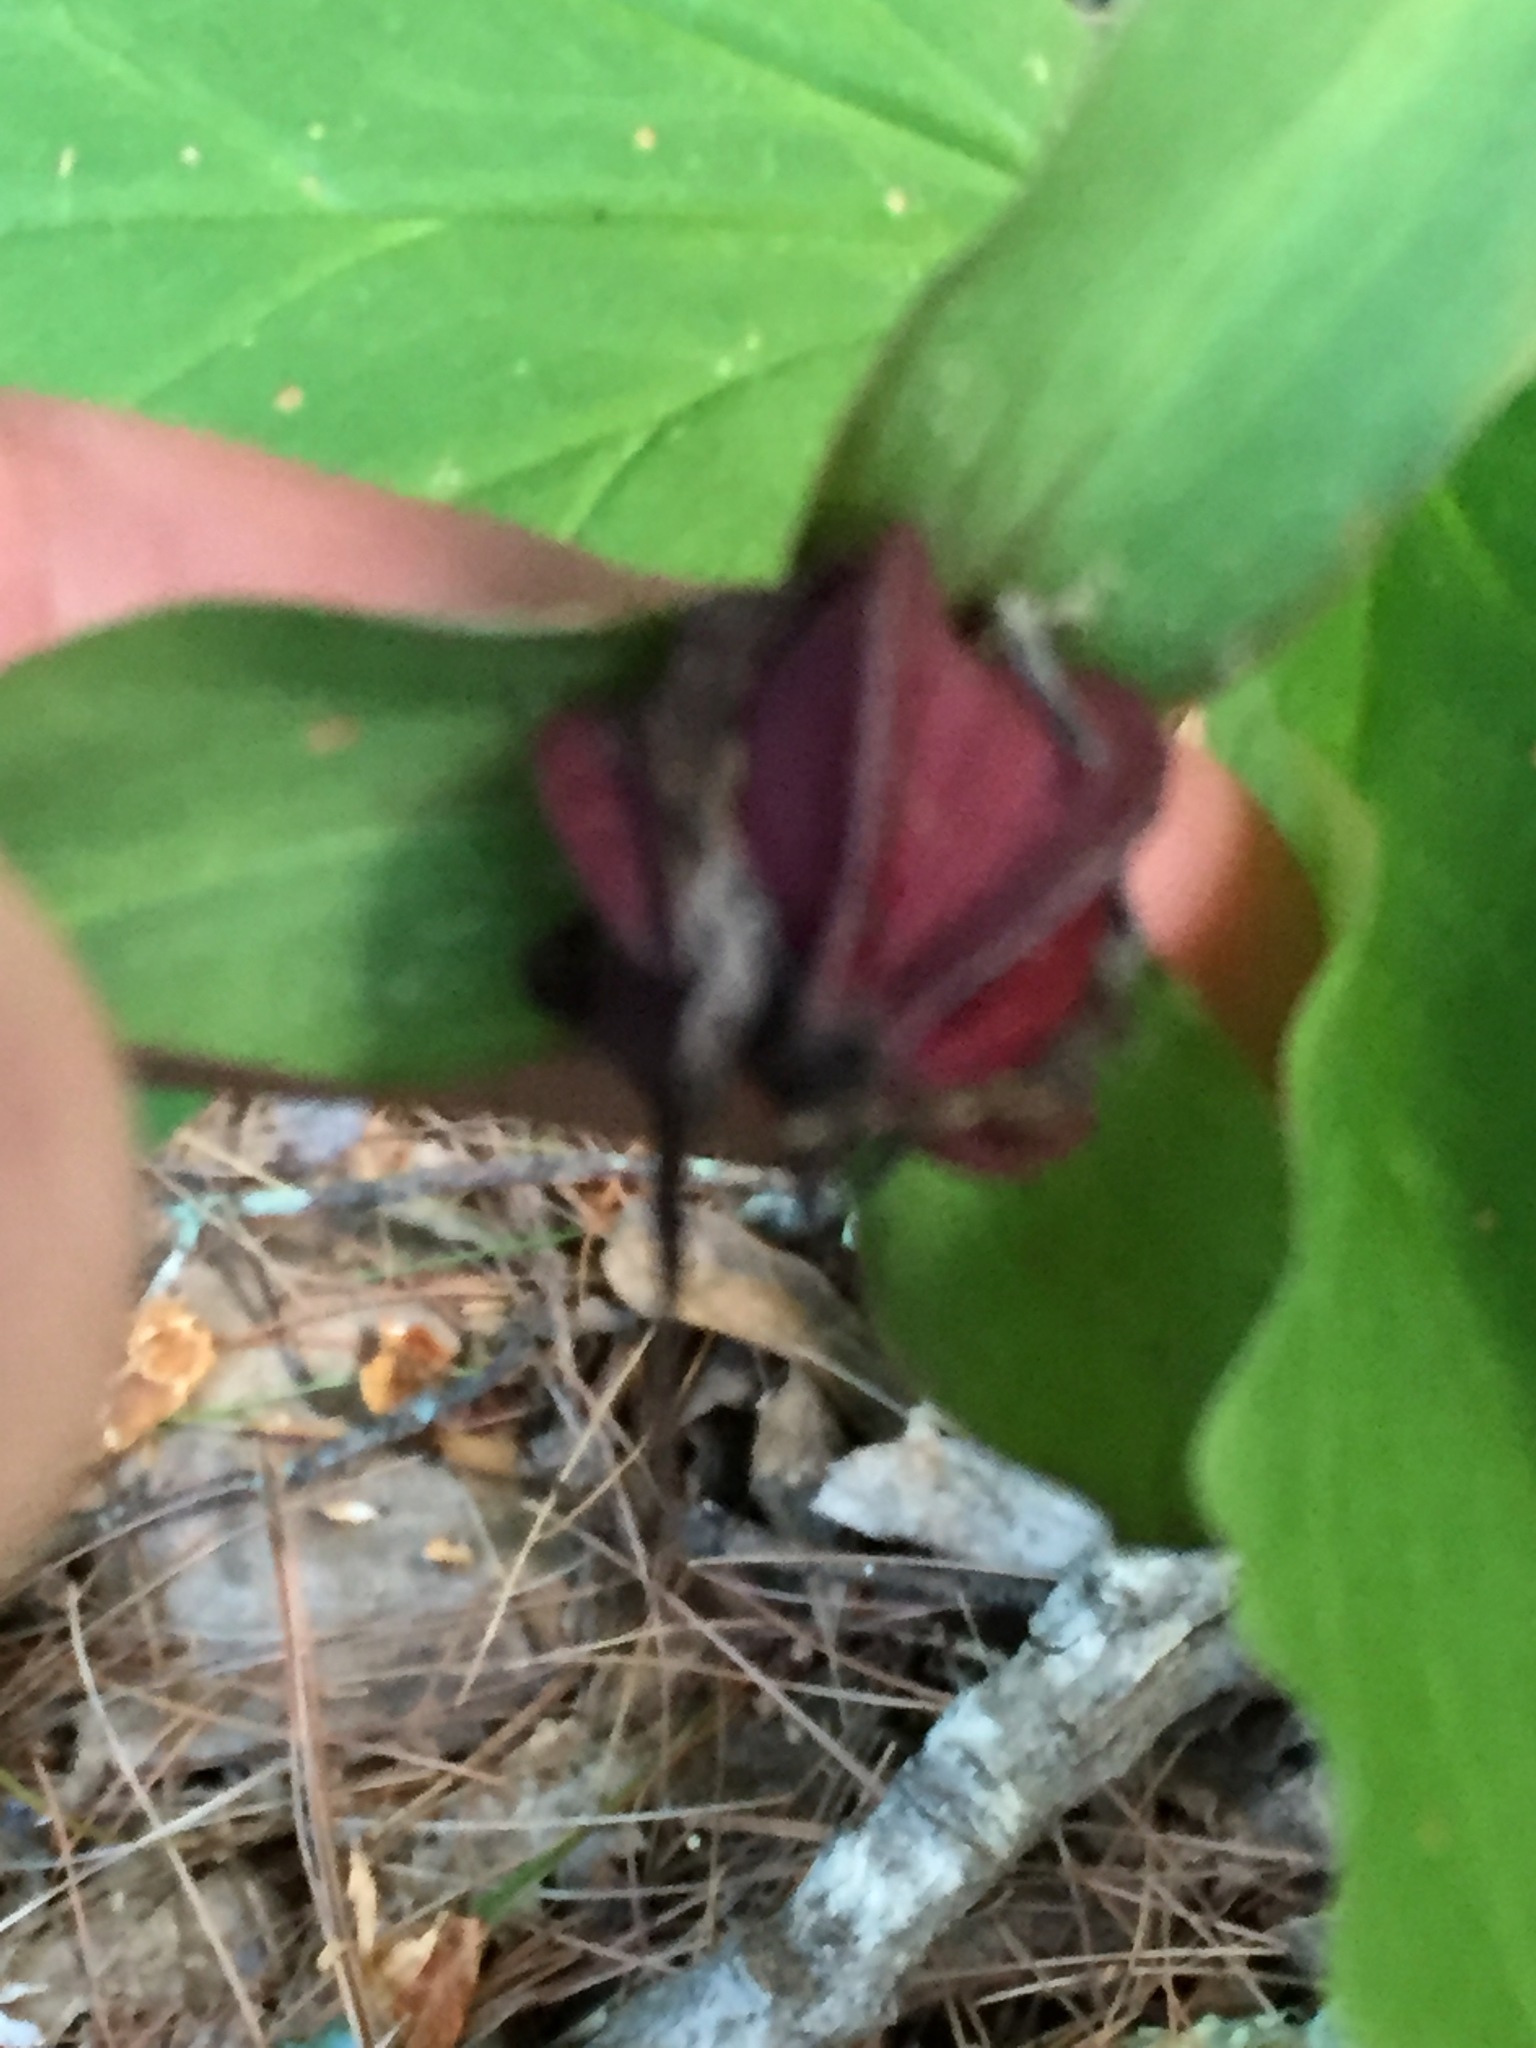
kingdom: Plantae
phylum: Tracheophyta
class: Liliopsida
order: Liliales
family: Melanthiaceae
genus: Trillium
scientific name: Trillium erectum
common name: Purple trillium
